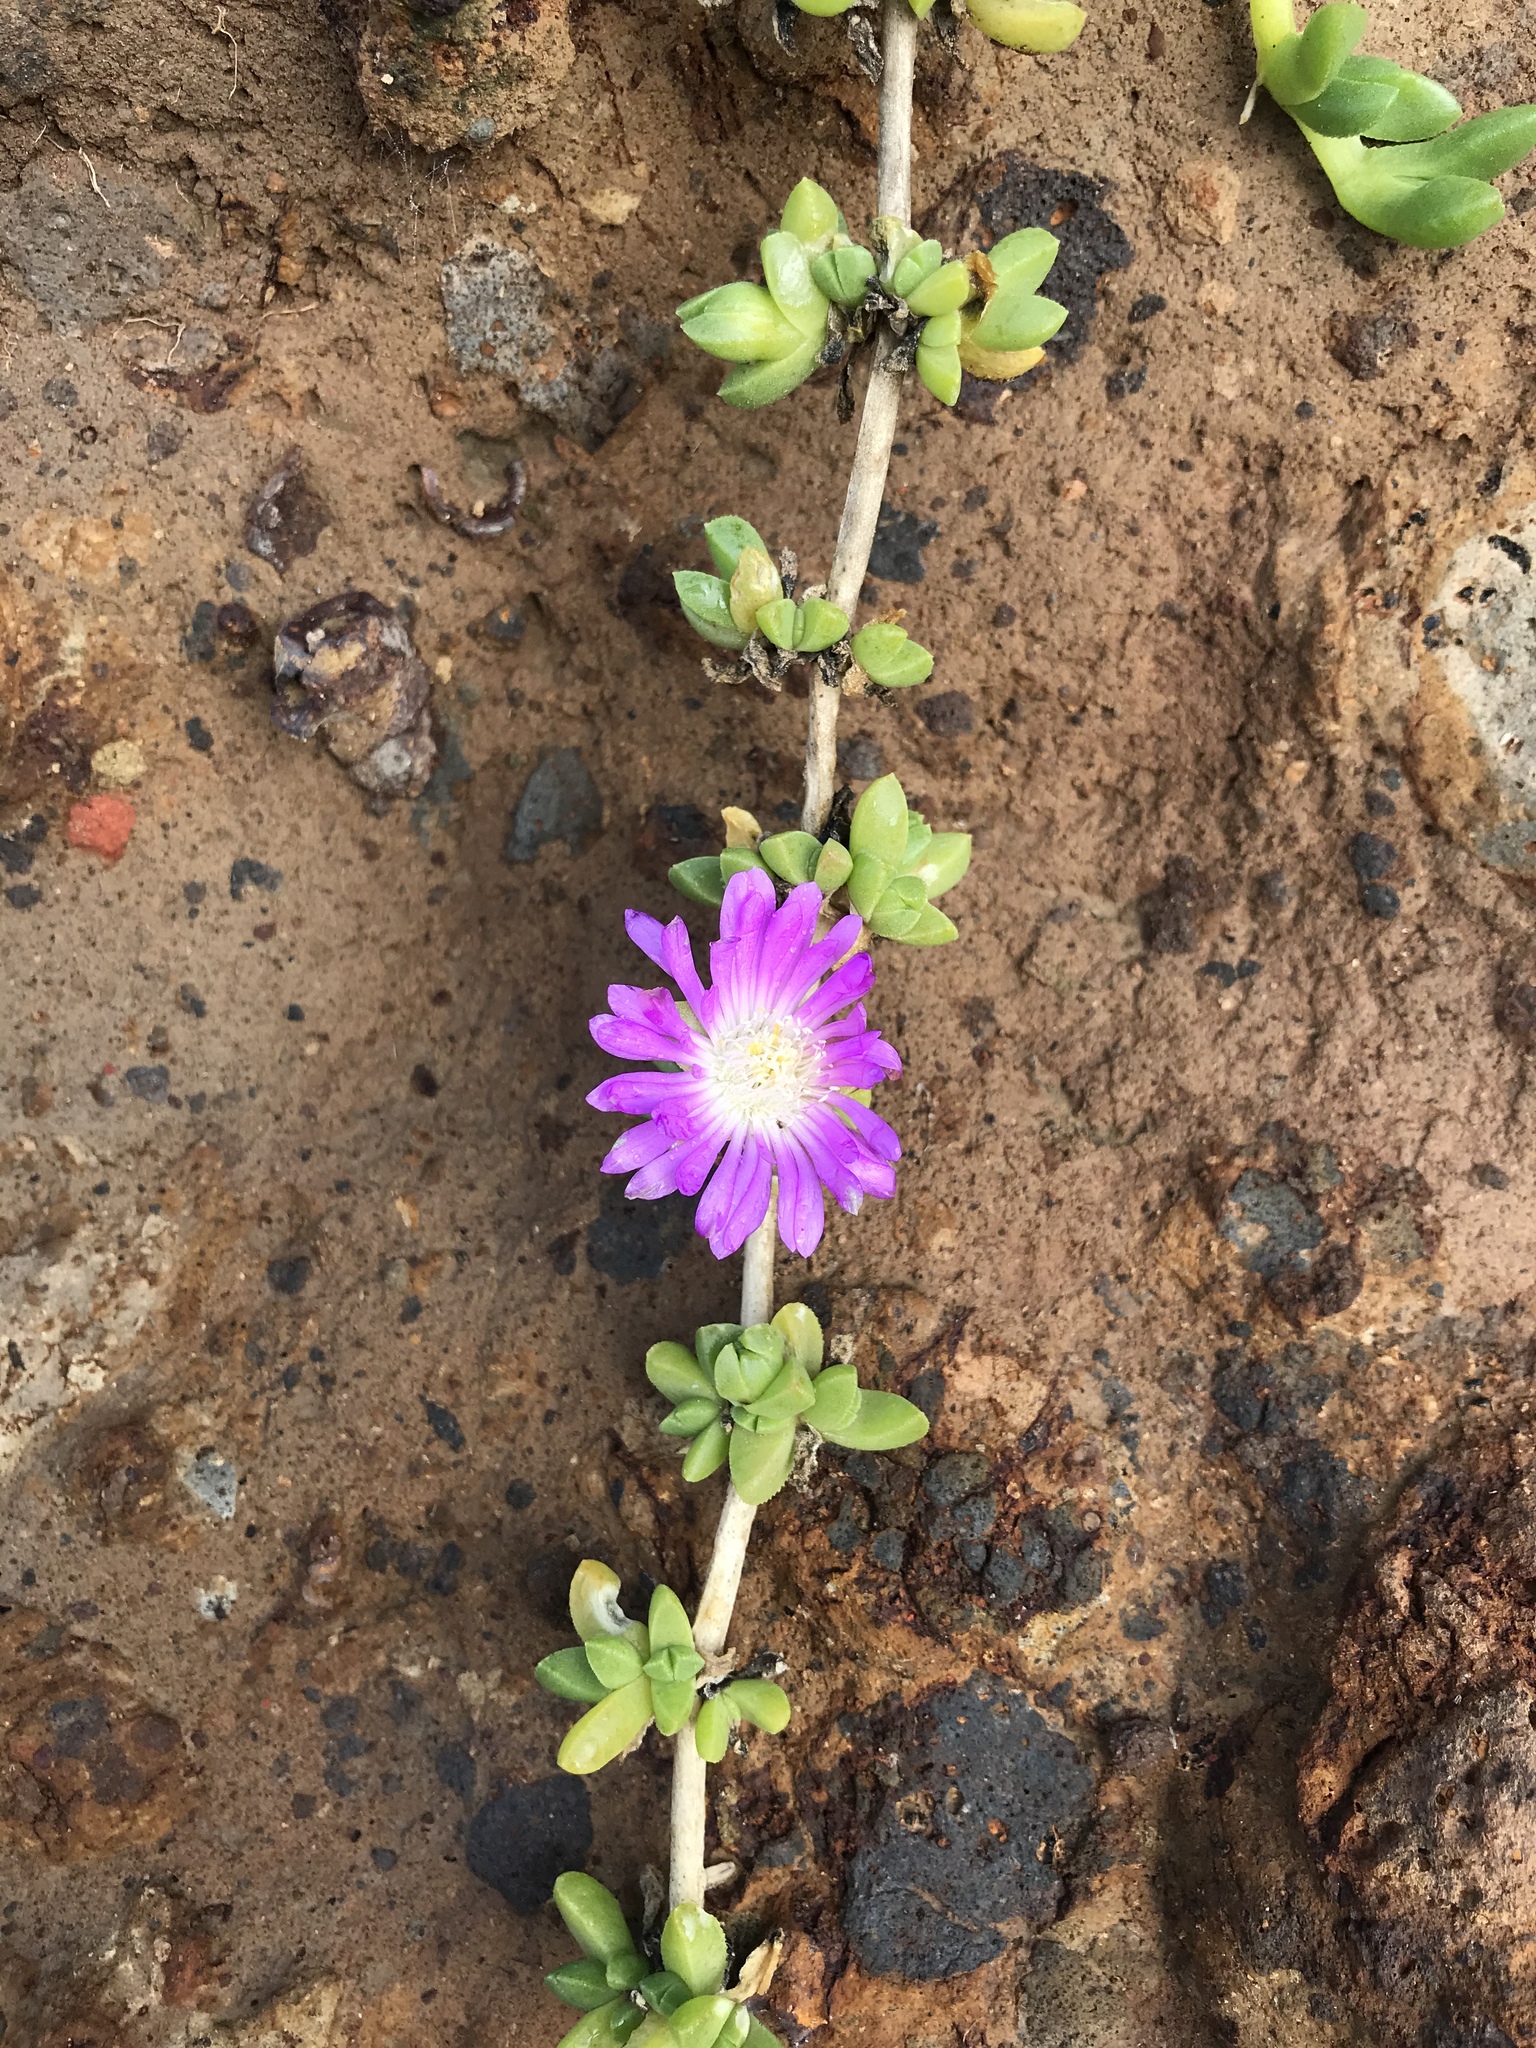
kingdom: Plantae
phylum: Tracheophyta
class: Magnoliopsida
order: Caryophyllales
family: Aizoaceae
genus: Disphyma
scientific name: Disphyma papillatum
